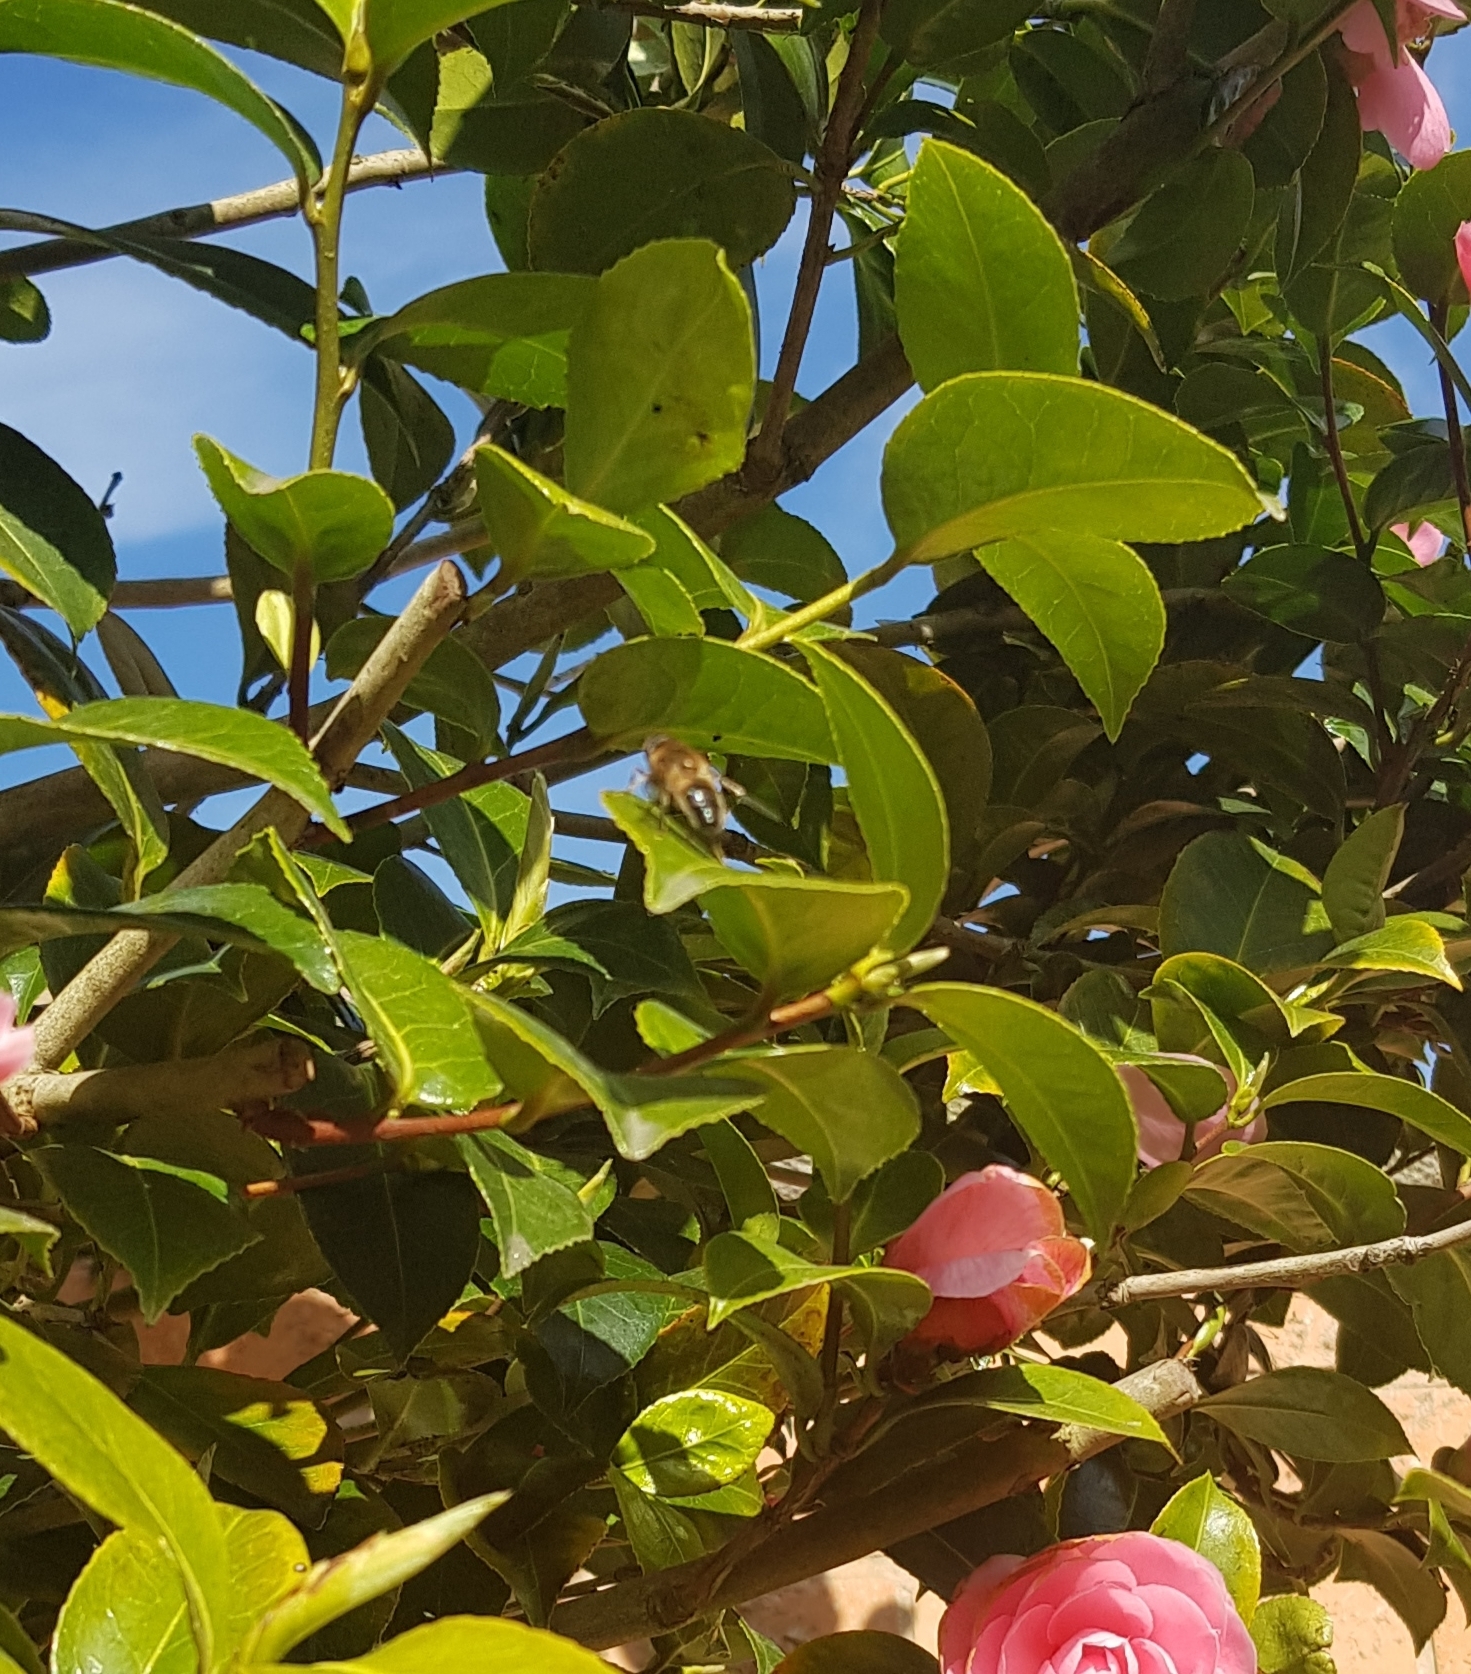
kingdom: Animalia
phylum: Arthropoda
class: Insecta
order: Diptera
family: Syrphidae
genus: Eristalis
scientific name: Eristalis
